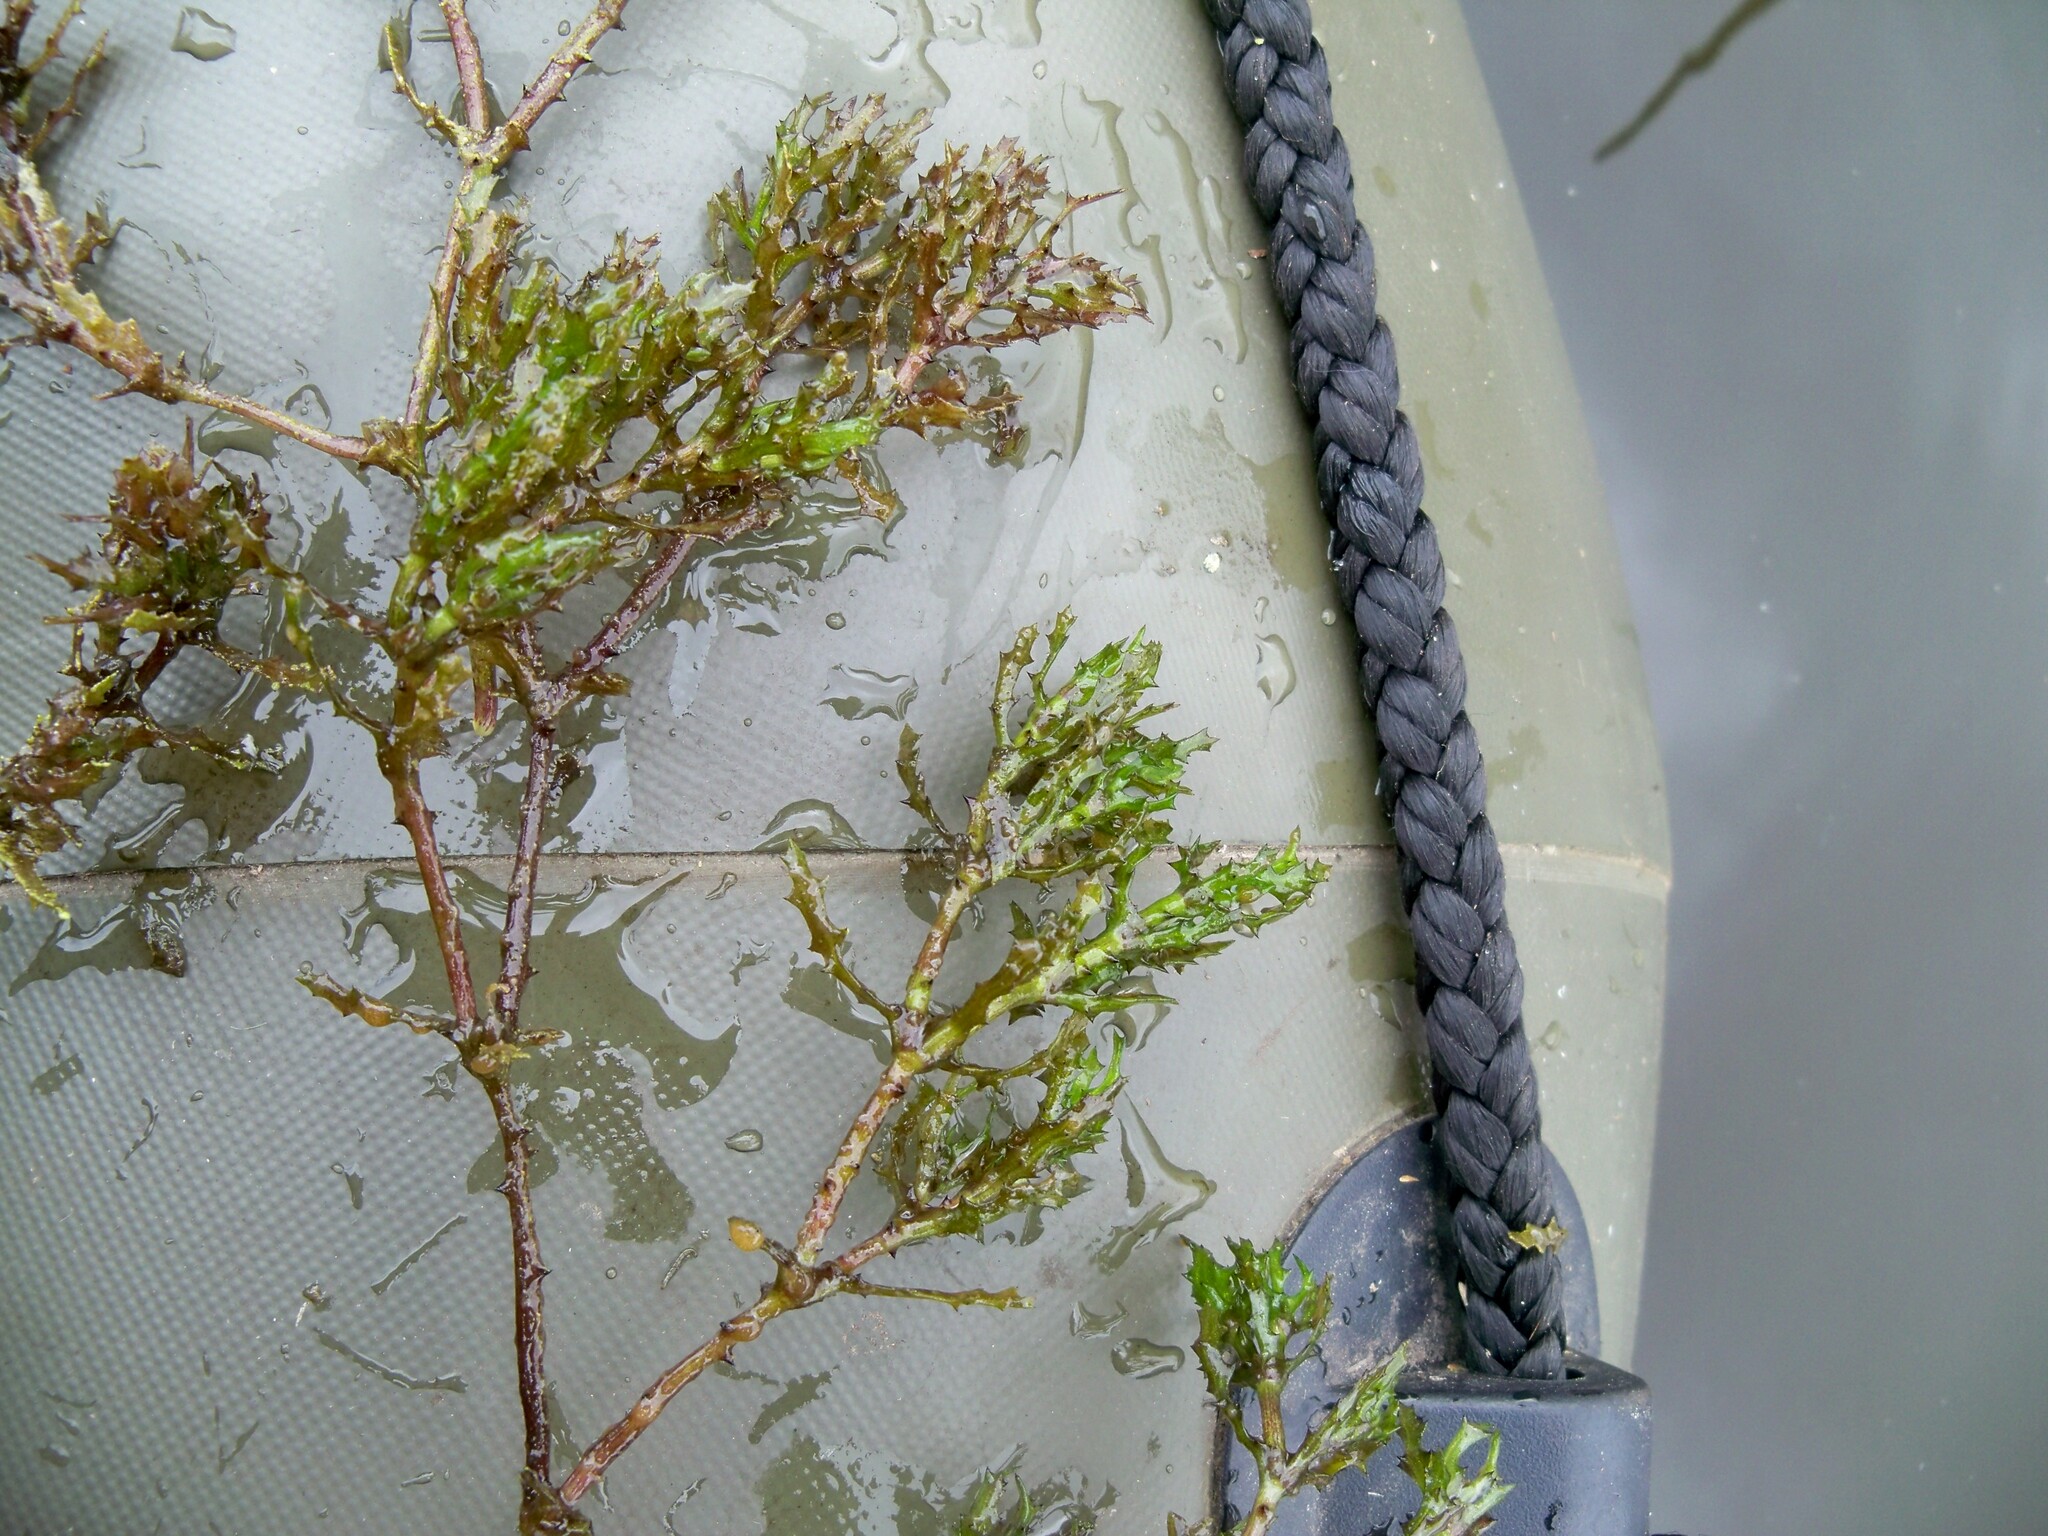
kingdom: Plantae
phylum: Tracheophyta
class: Liliopsida
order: Alismatales
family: Hydrocharitaceae
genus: Najas
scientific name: Najas marina
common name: Holly-leaved naiad
